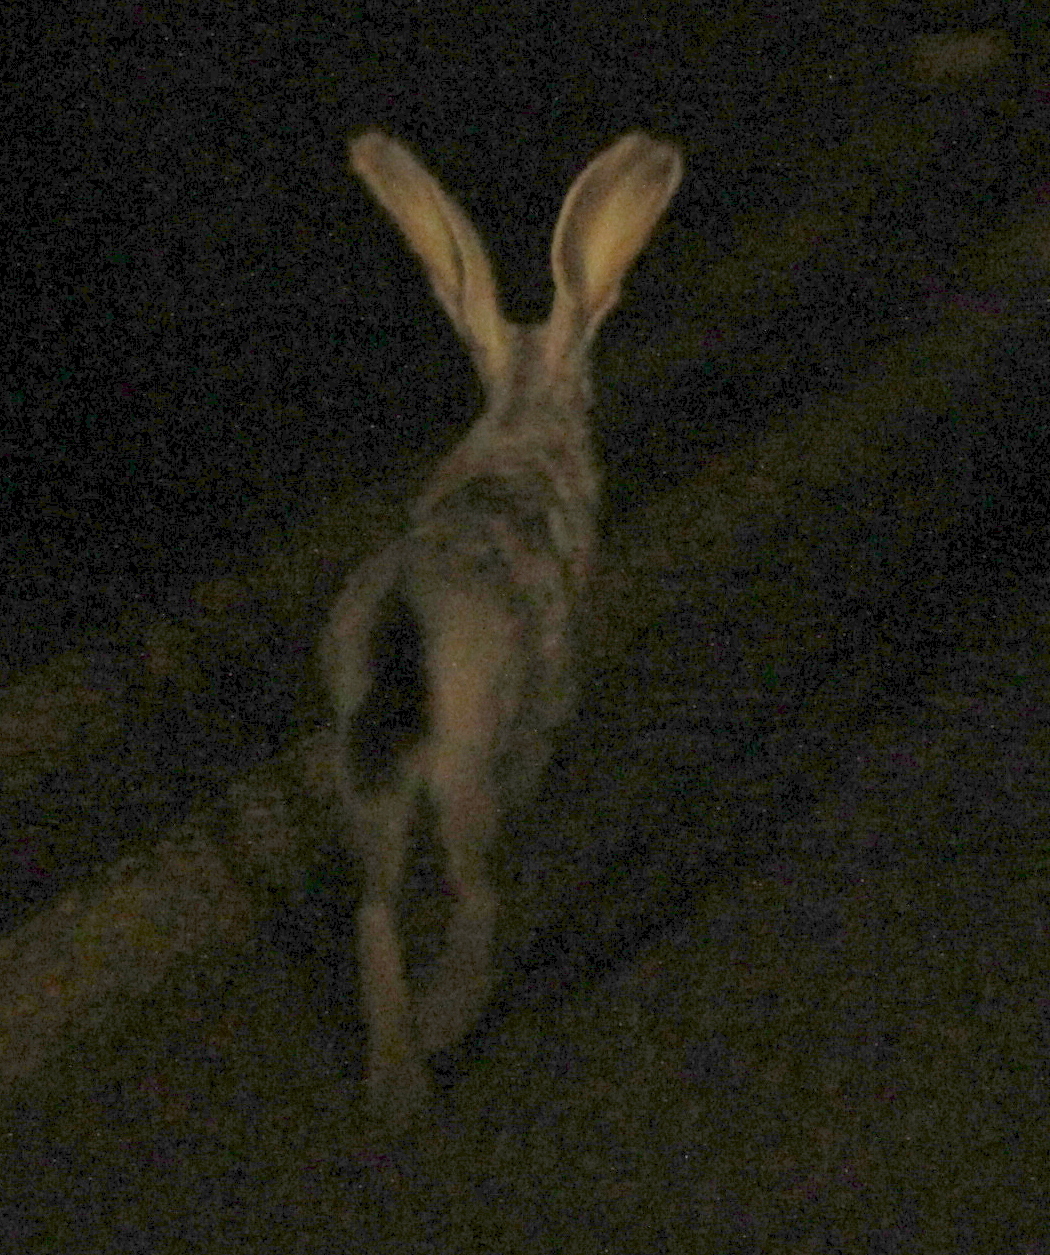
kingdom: Animalia
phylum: Chordata
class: Mammalia
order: Lagomorpha
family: Leporidae
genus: Lepus
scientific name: Lepus californicus
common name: Black-tailed jackrabbit
